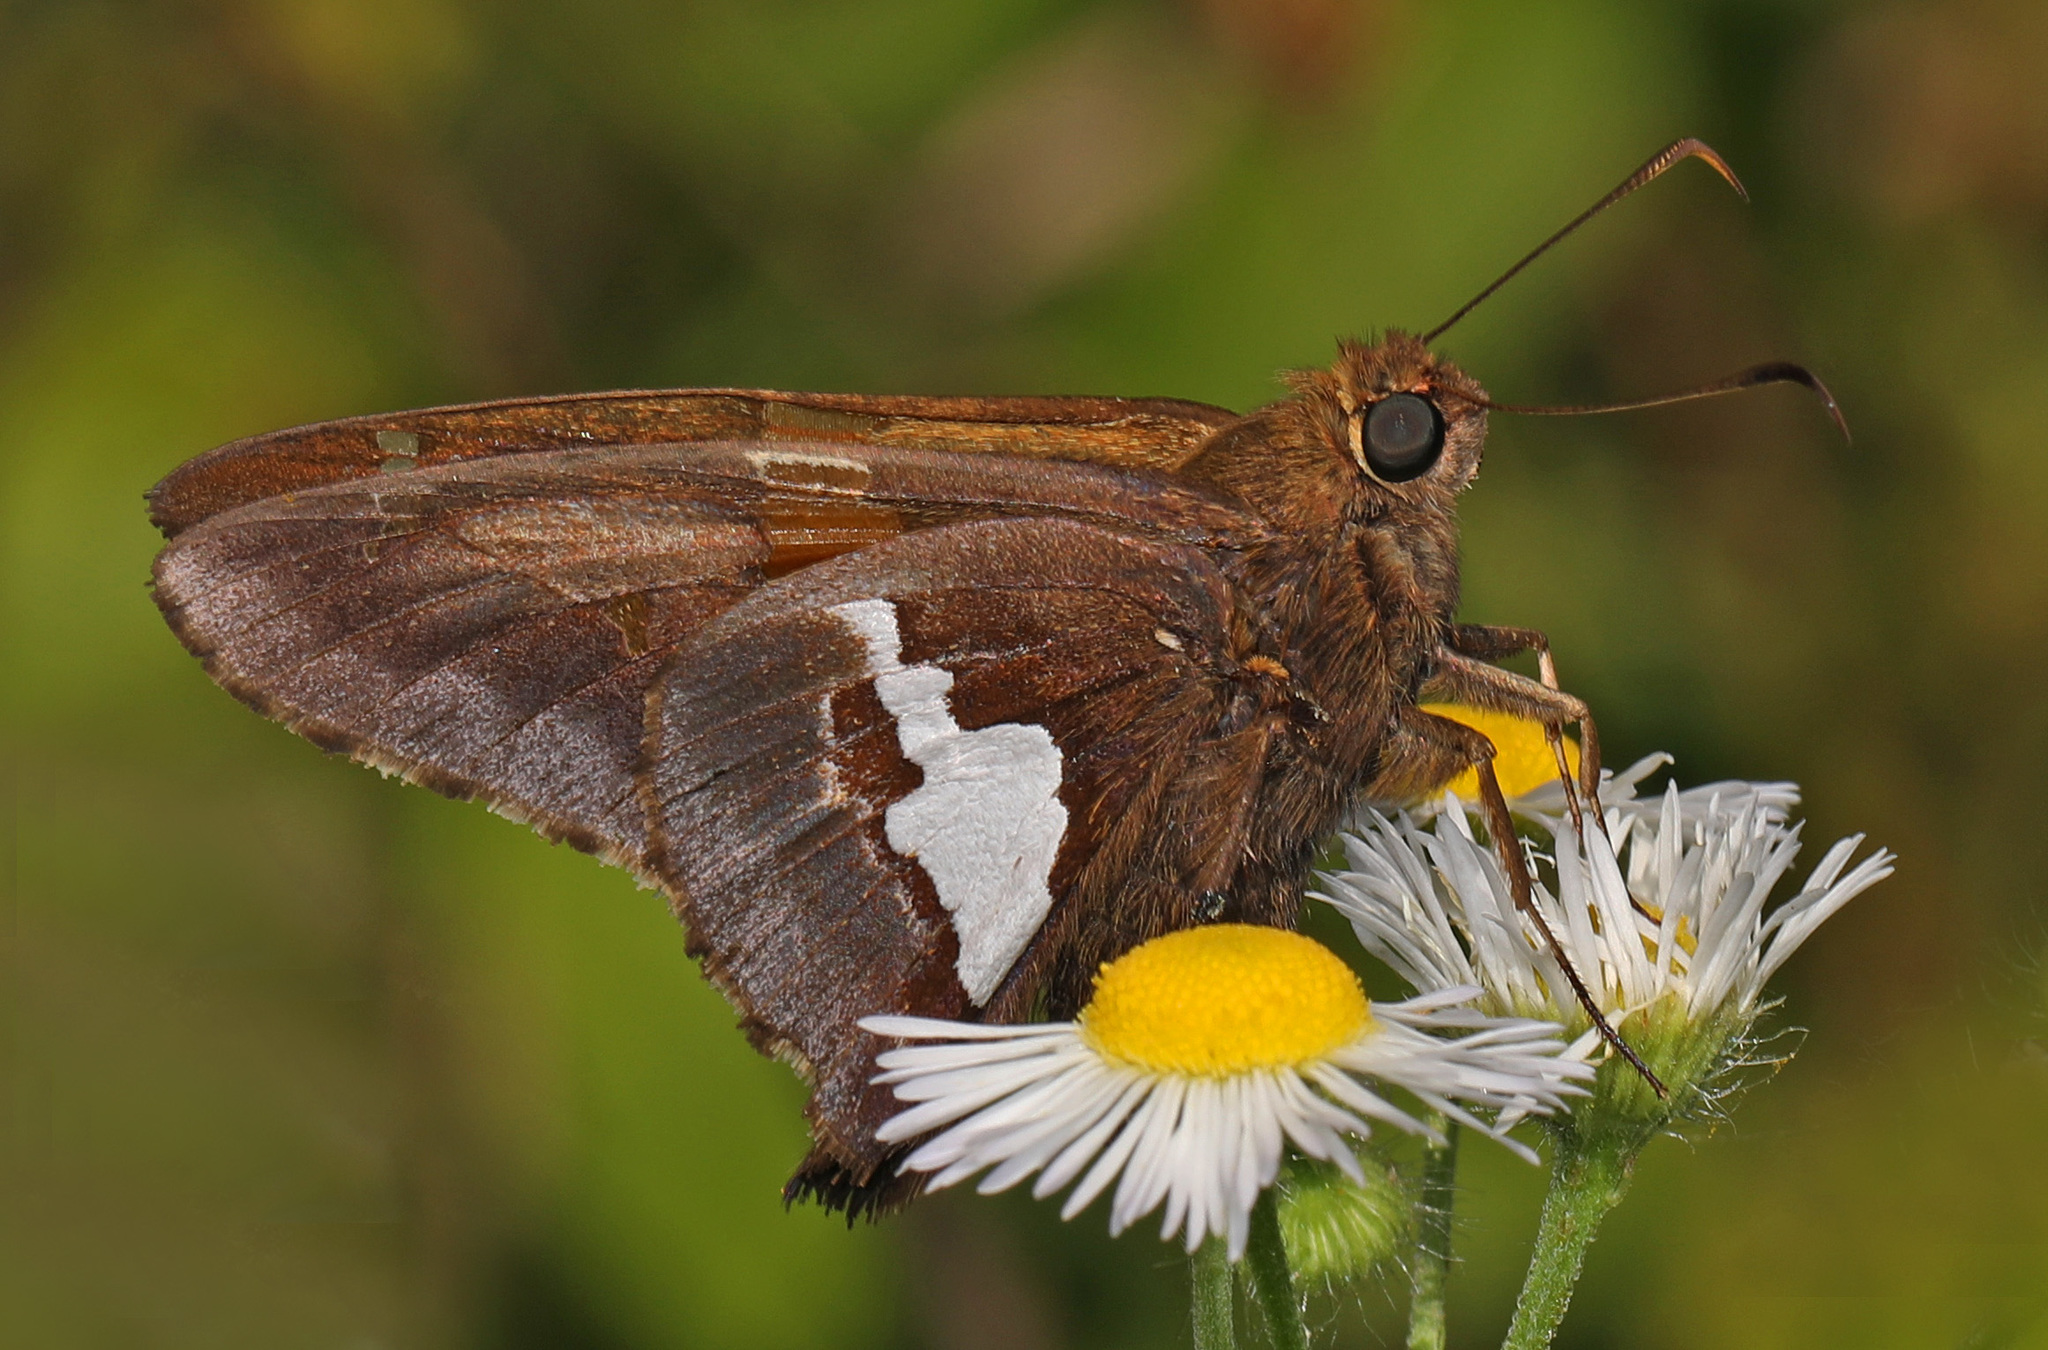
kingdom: Animalia
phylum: Arthropoda
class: Insecta
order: Lepidoptera
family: Hesperiidae
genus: Epargyreus
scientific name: Epargyreus clarus
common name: Silver-spotted skipper
